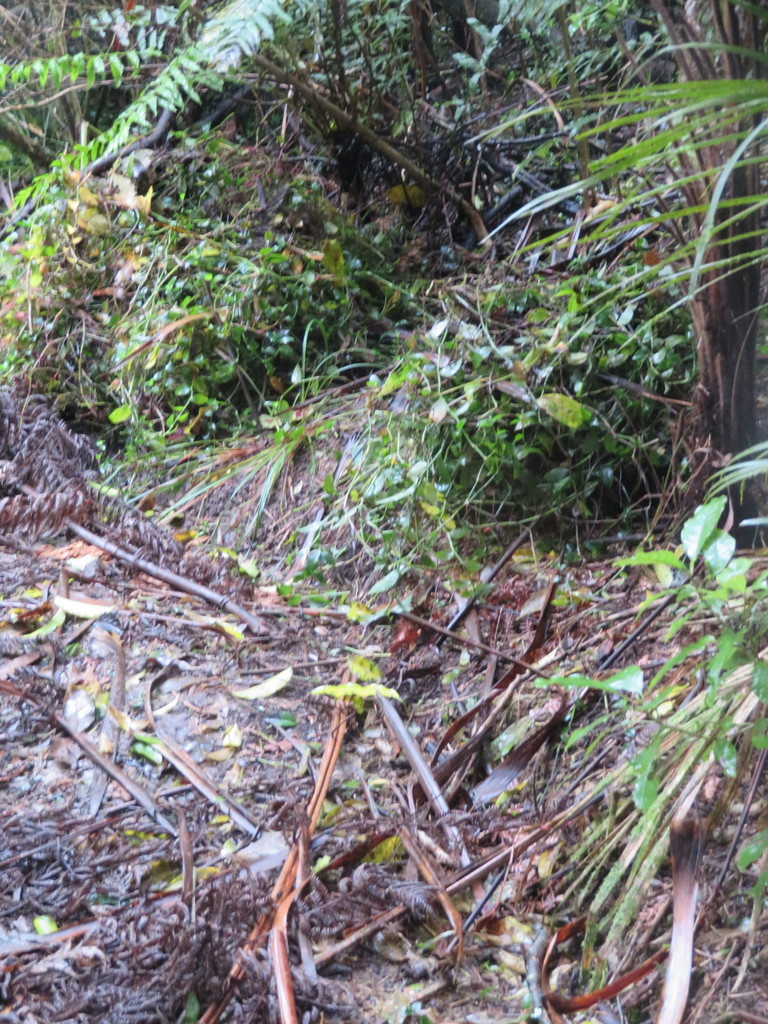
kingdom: Plantae
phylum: Tracheophyta
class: Liliopsida
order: Commelinales
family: Commelinaceae
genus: Tradescantia
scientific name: Tradescantia fluminensis
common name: Wandering-jew
